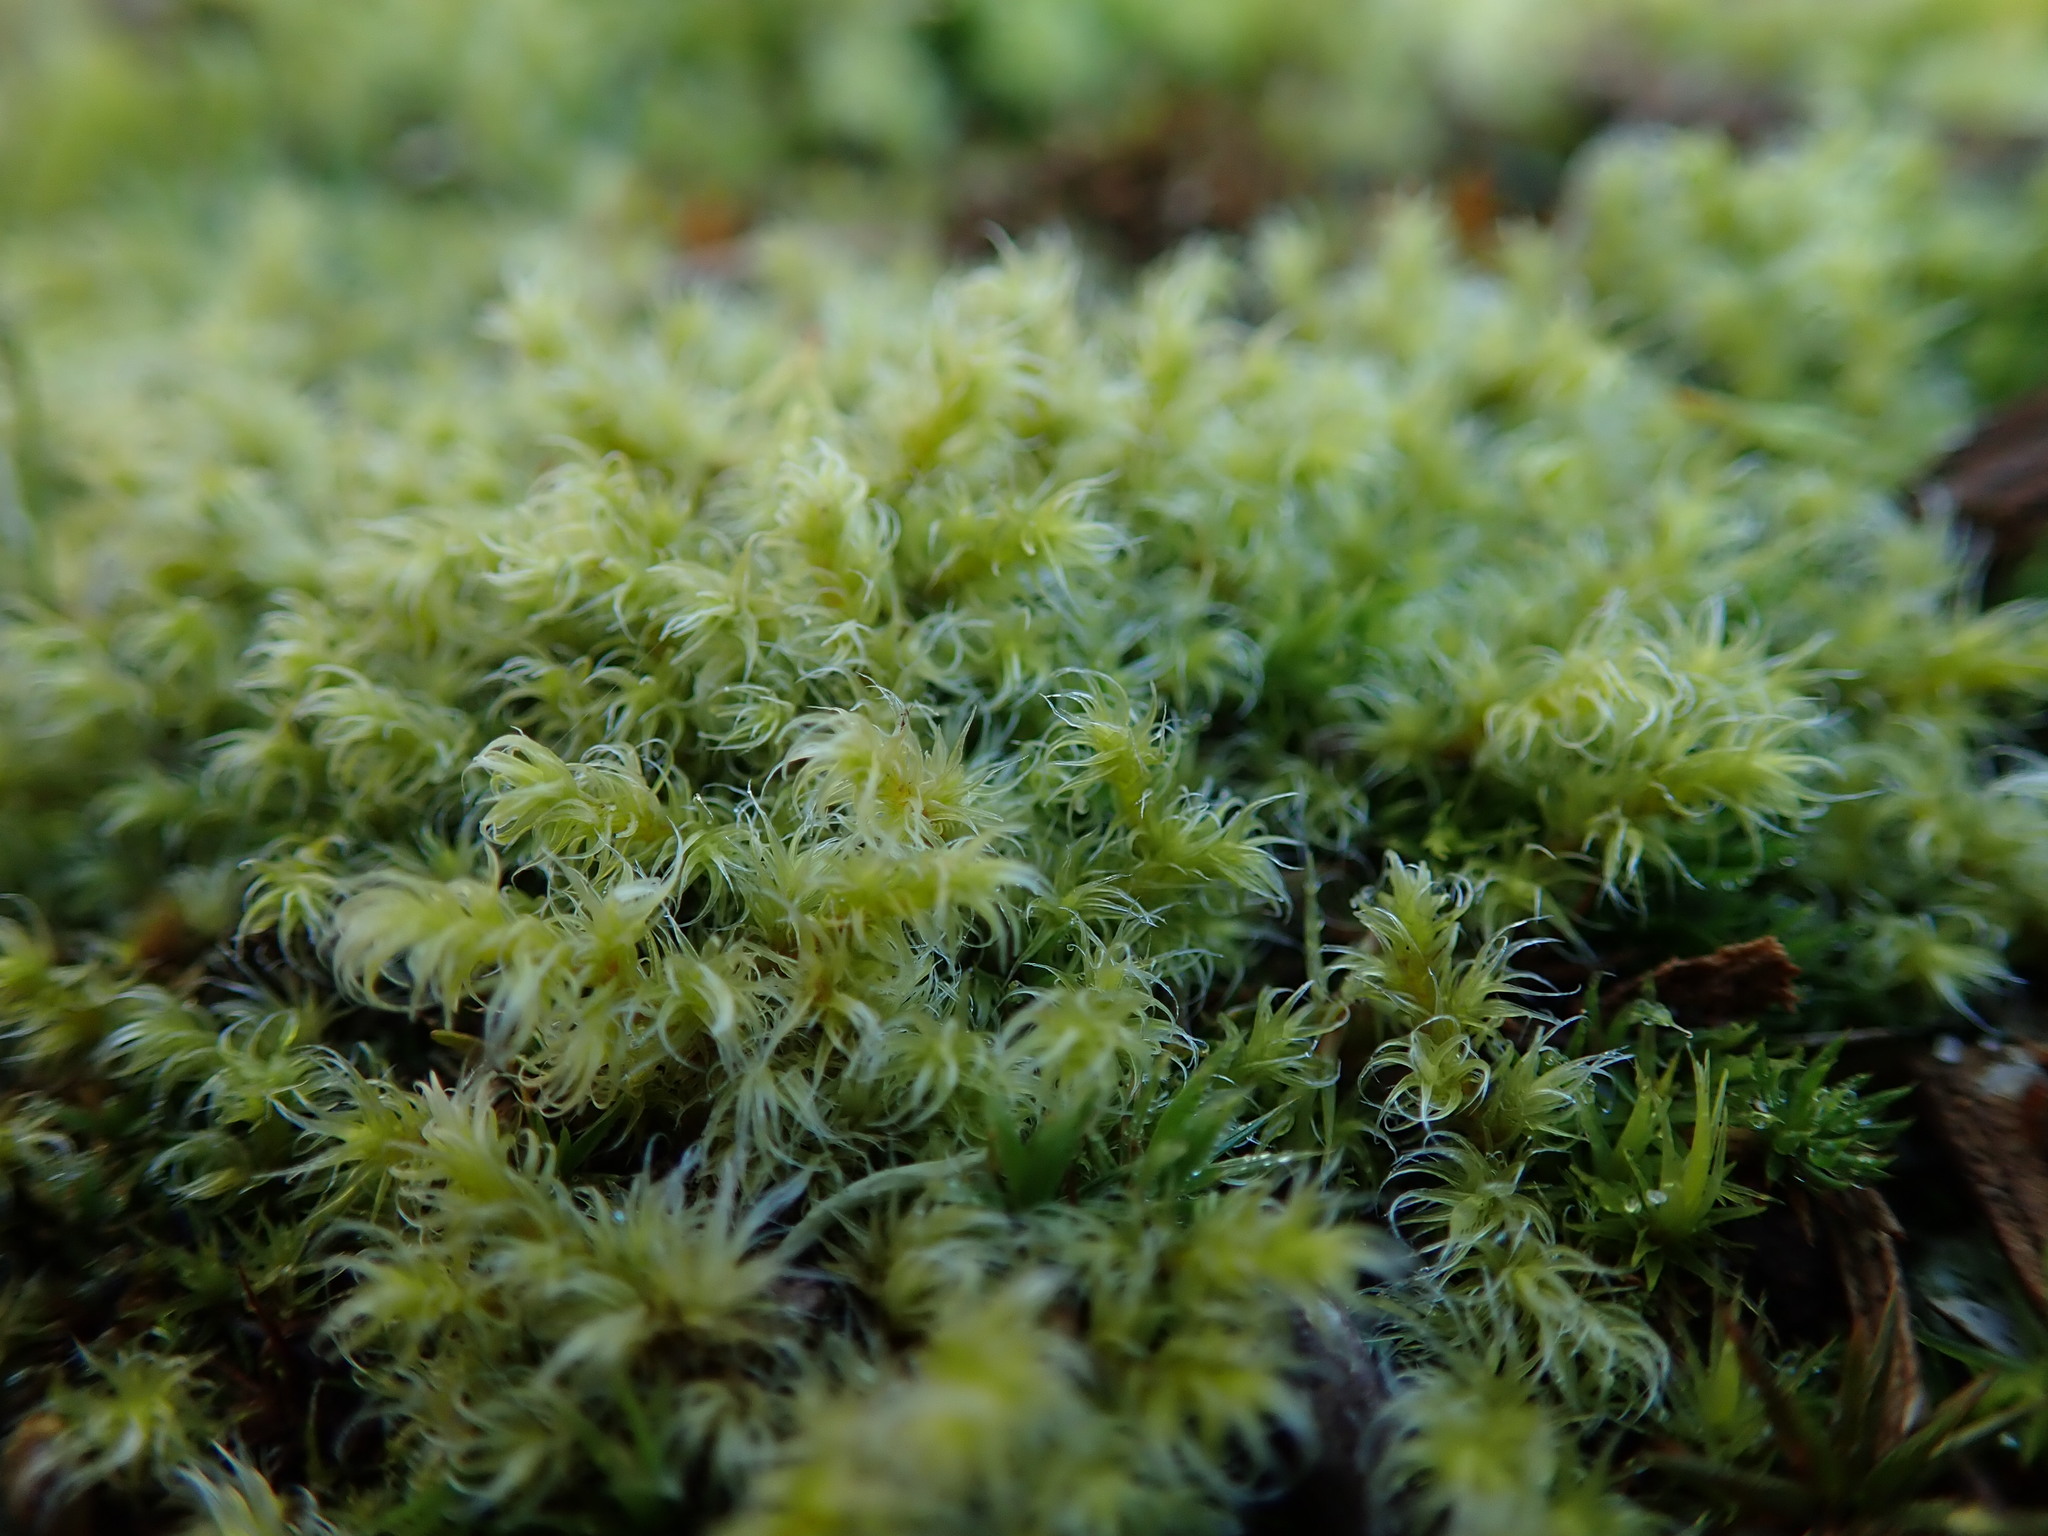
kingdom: Plantae
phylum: Bryophyta
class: Bryopsida
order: Grimmiales
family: Grimmiaceae
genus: Niphotrichum
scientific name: Niphotrichum elongatum
